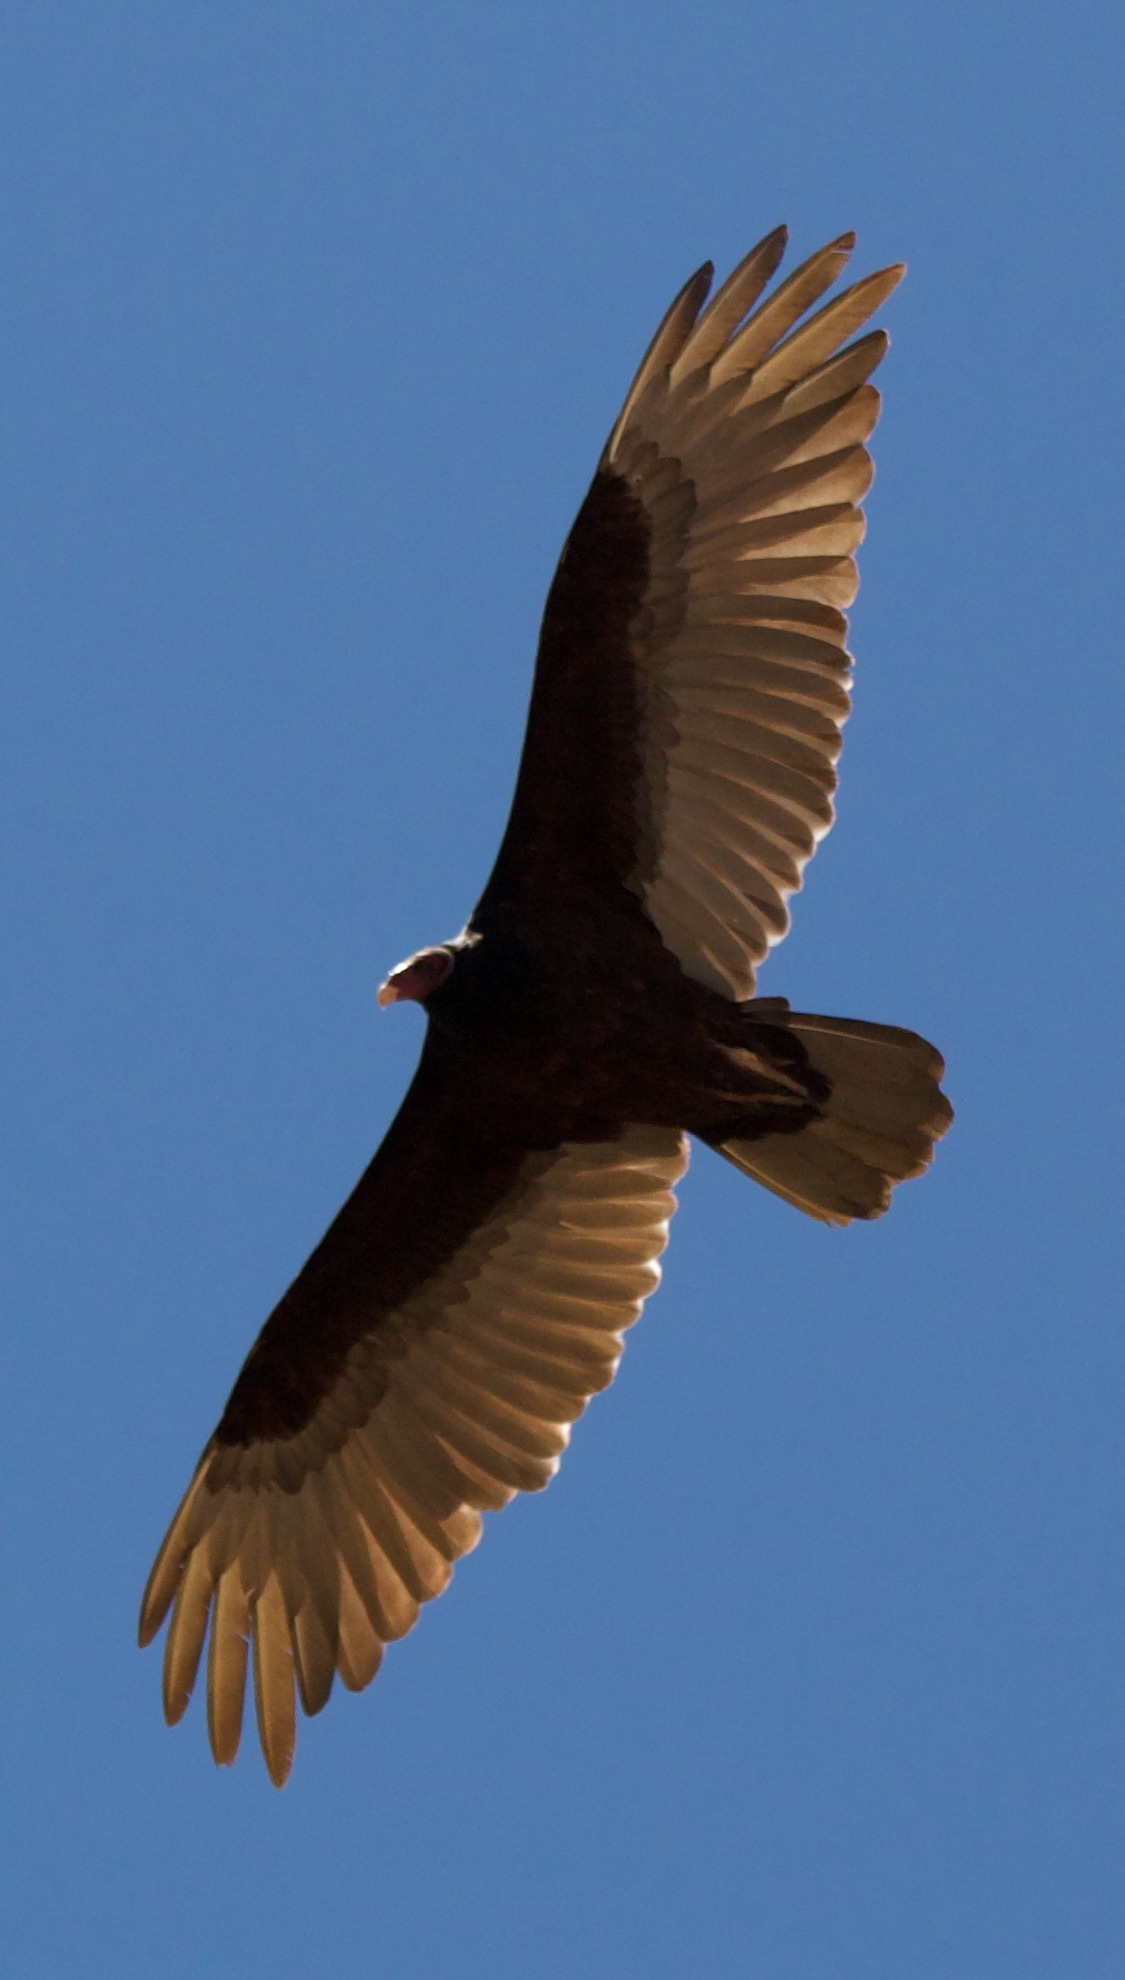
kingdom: Animalia
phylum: Chordata
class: Aves
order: Accipitriformes
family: Cathartidae
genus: Cathartes
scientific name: Cathartes aura
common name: Turkey vulture
